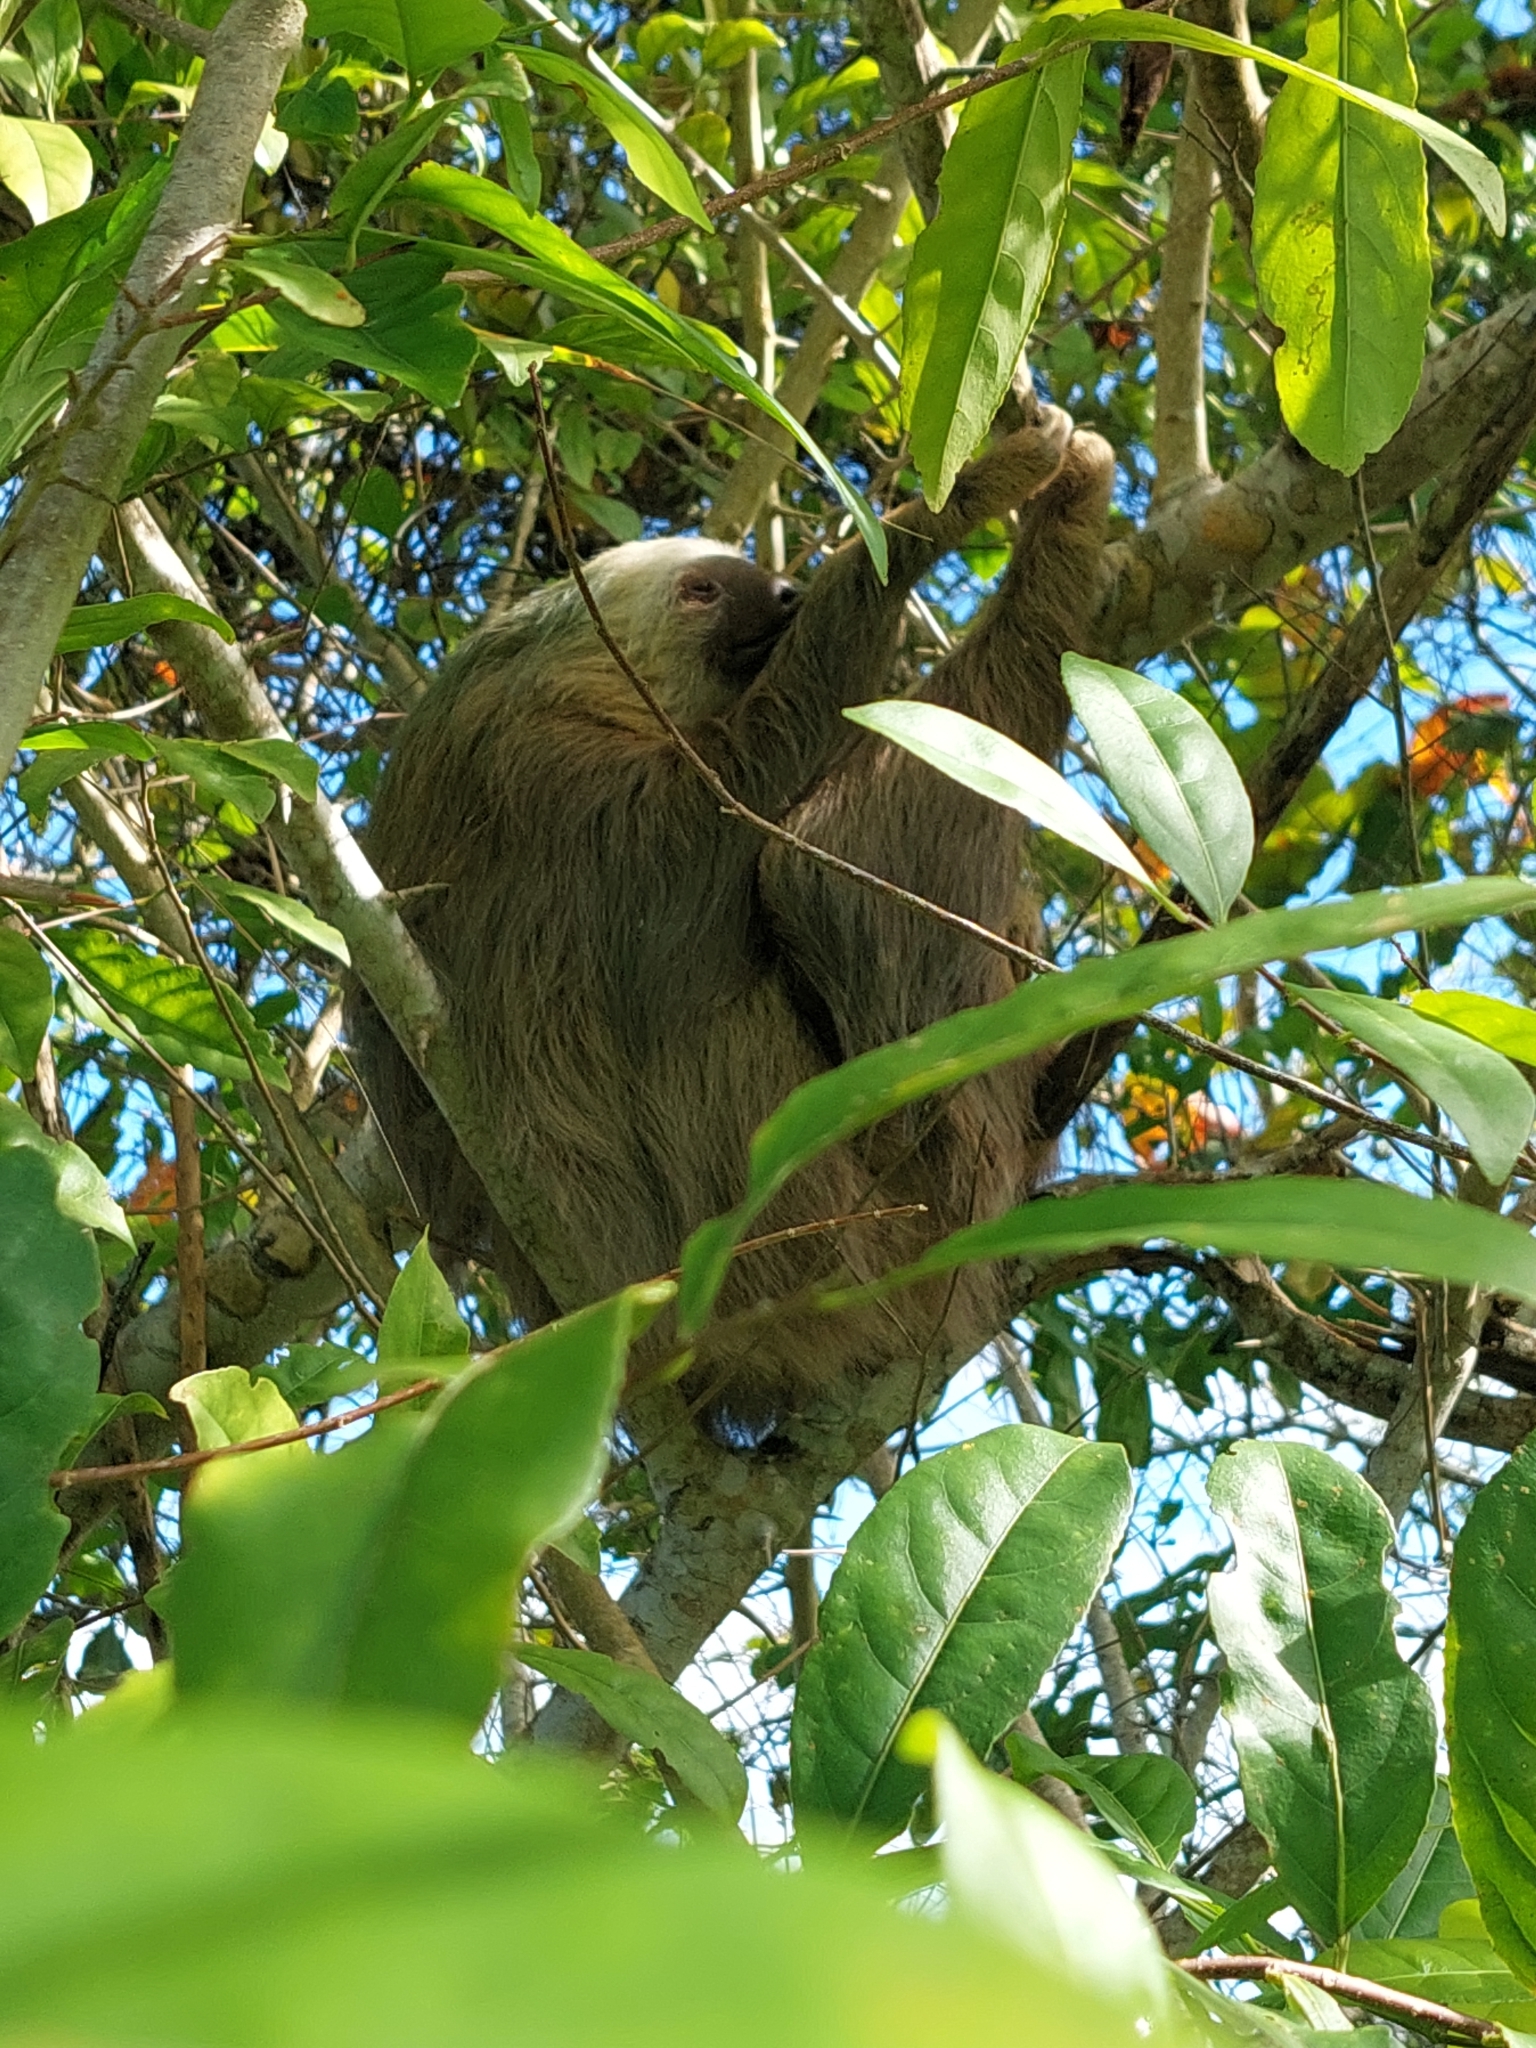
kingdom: Animalia
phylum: Chordata
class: Mammalia
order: Pilosa
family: Megalonychidae
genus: Choloepus
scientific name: Choloepus hoffmanni
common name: Hoffmann's two-toed sloth
